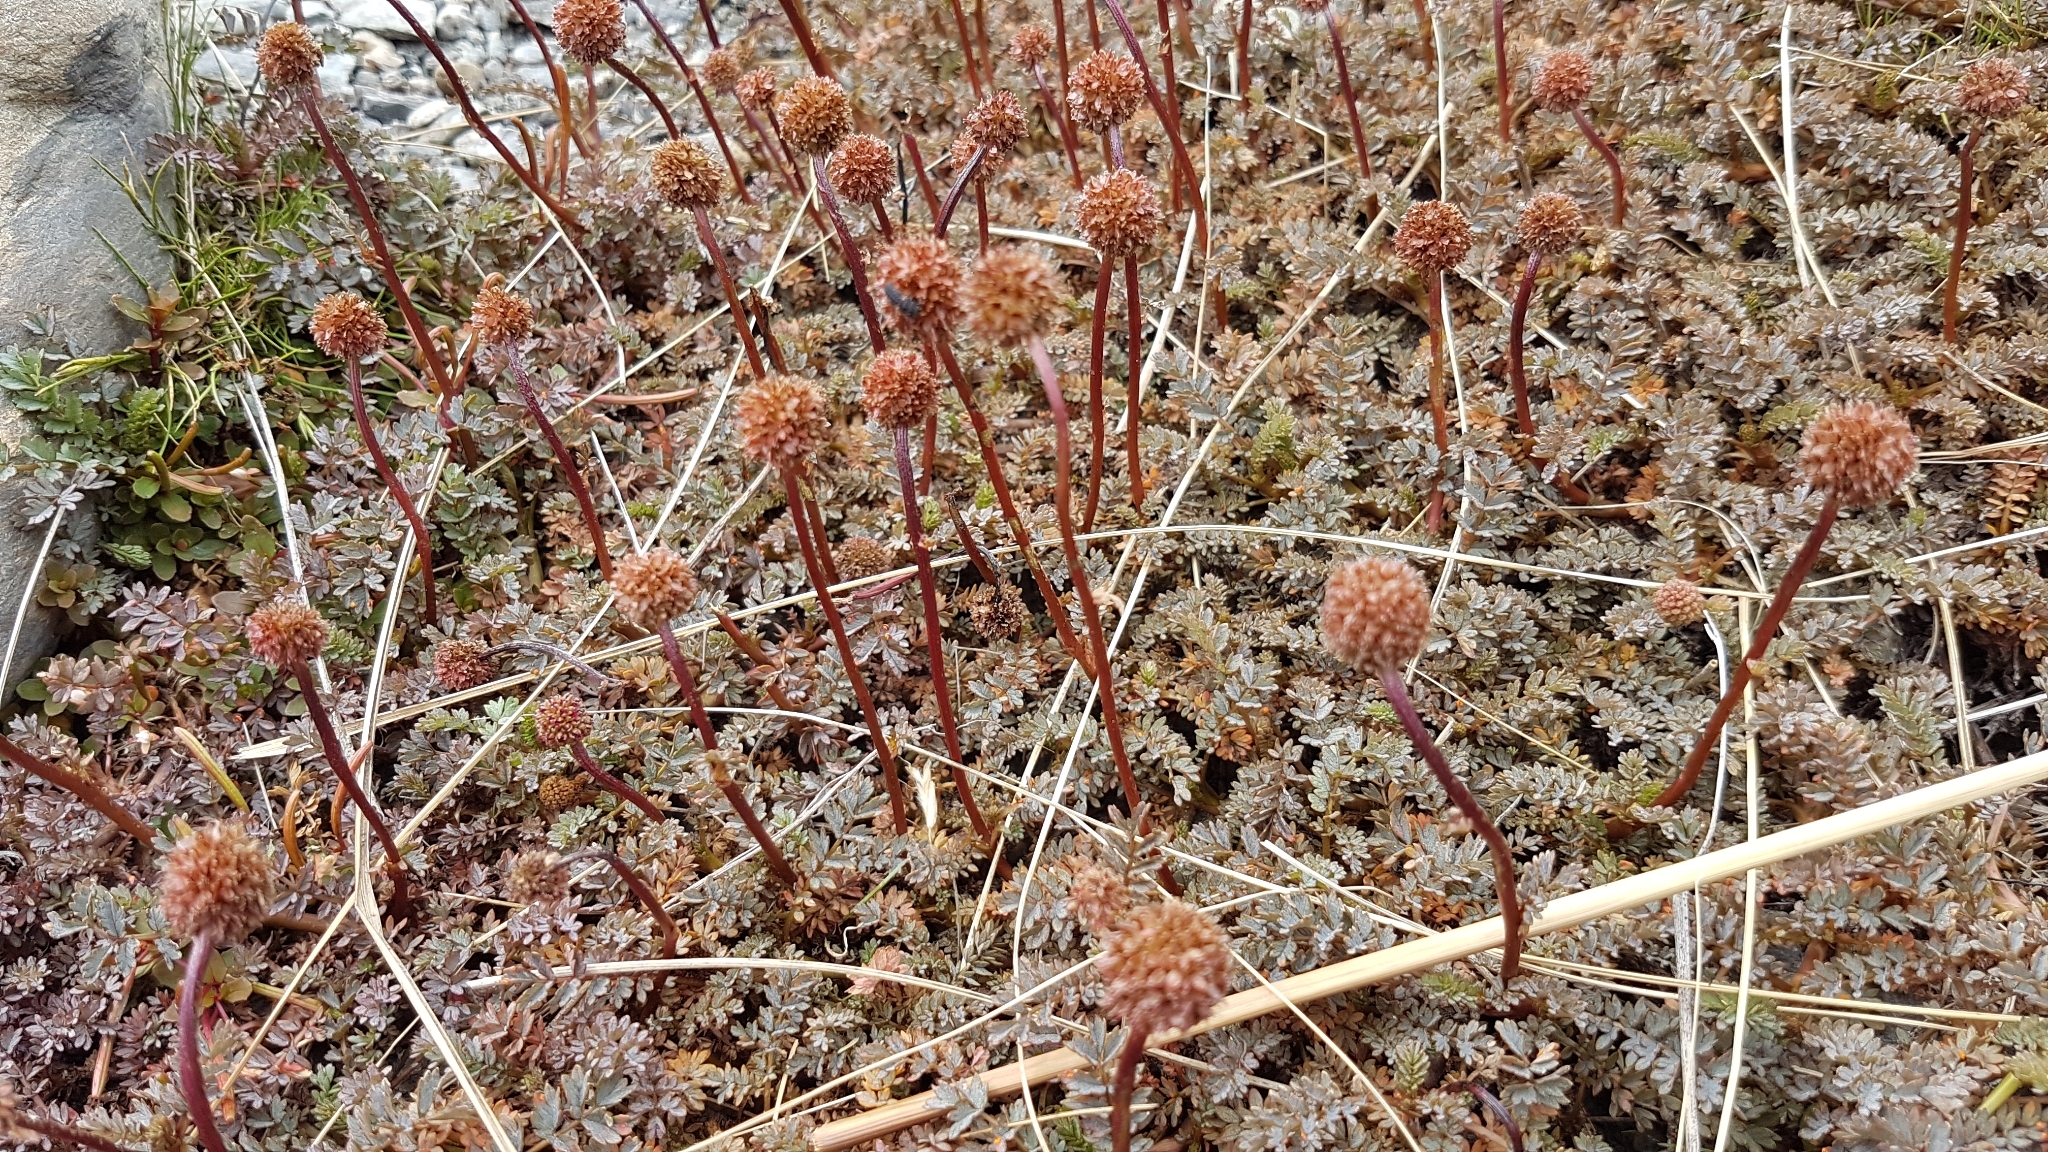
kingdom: Plantae
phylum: Tracheophyta
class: Magnoliopsida
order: Rosales
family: Rosaceae
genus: Acaena
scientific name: Acaena saccaticupula
